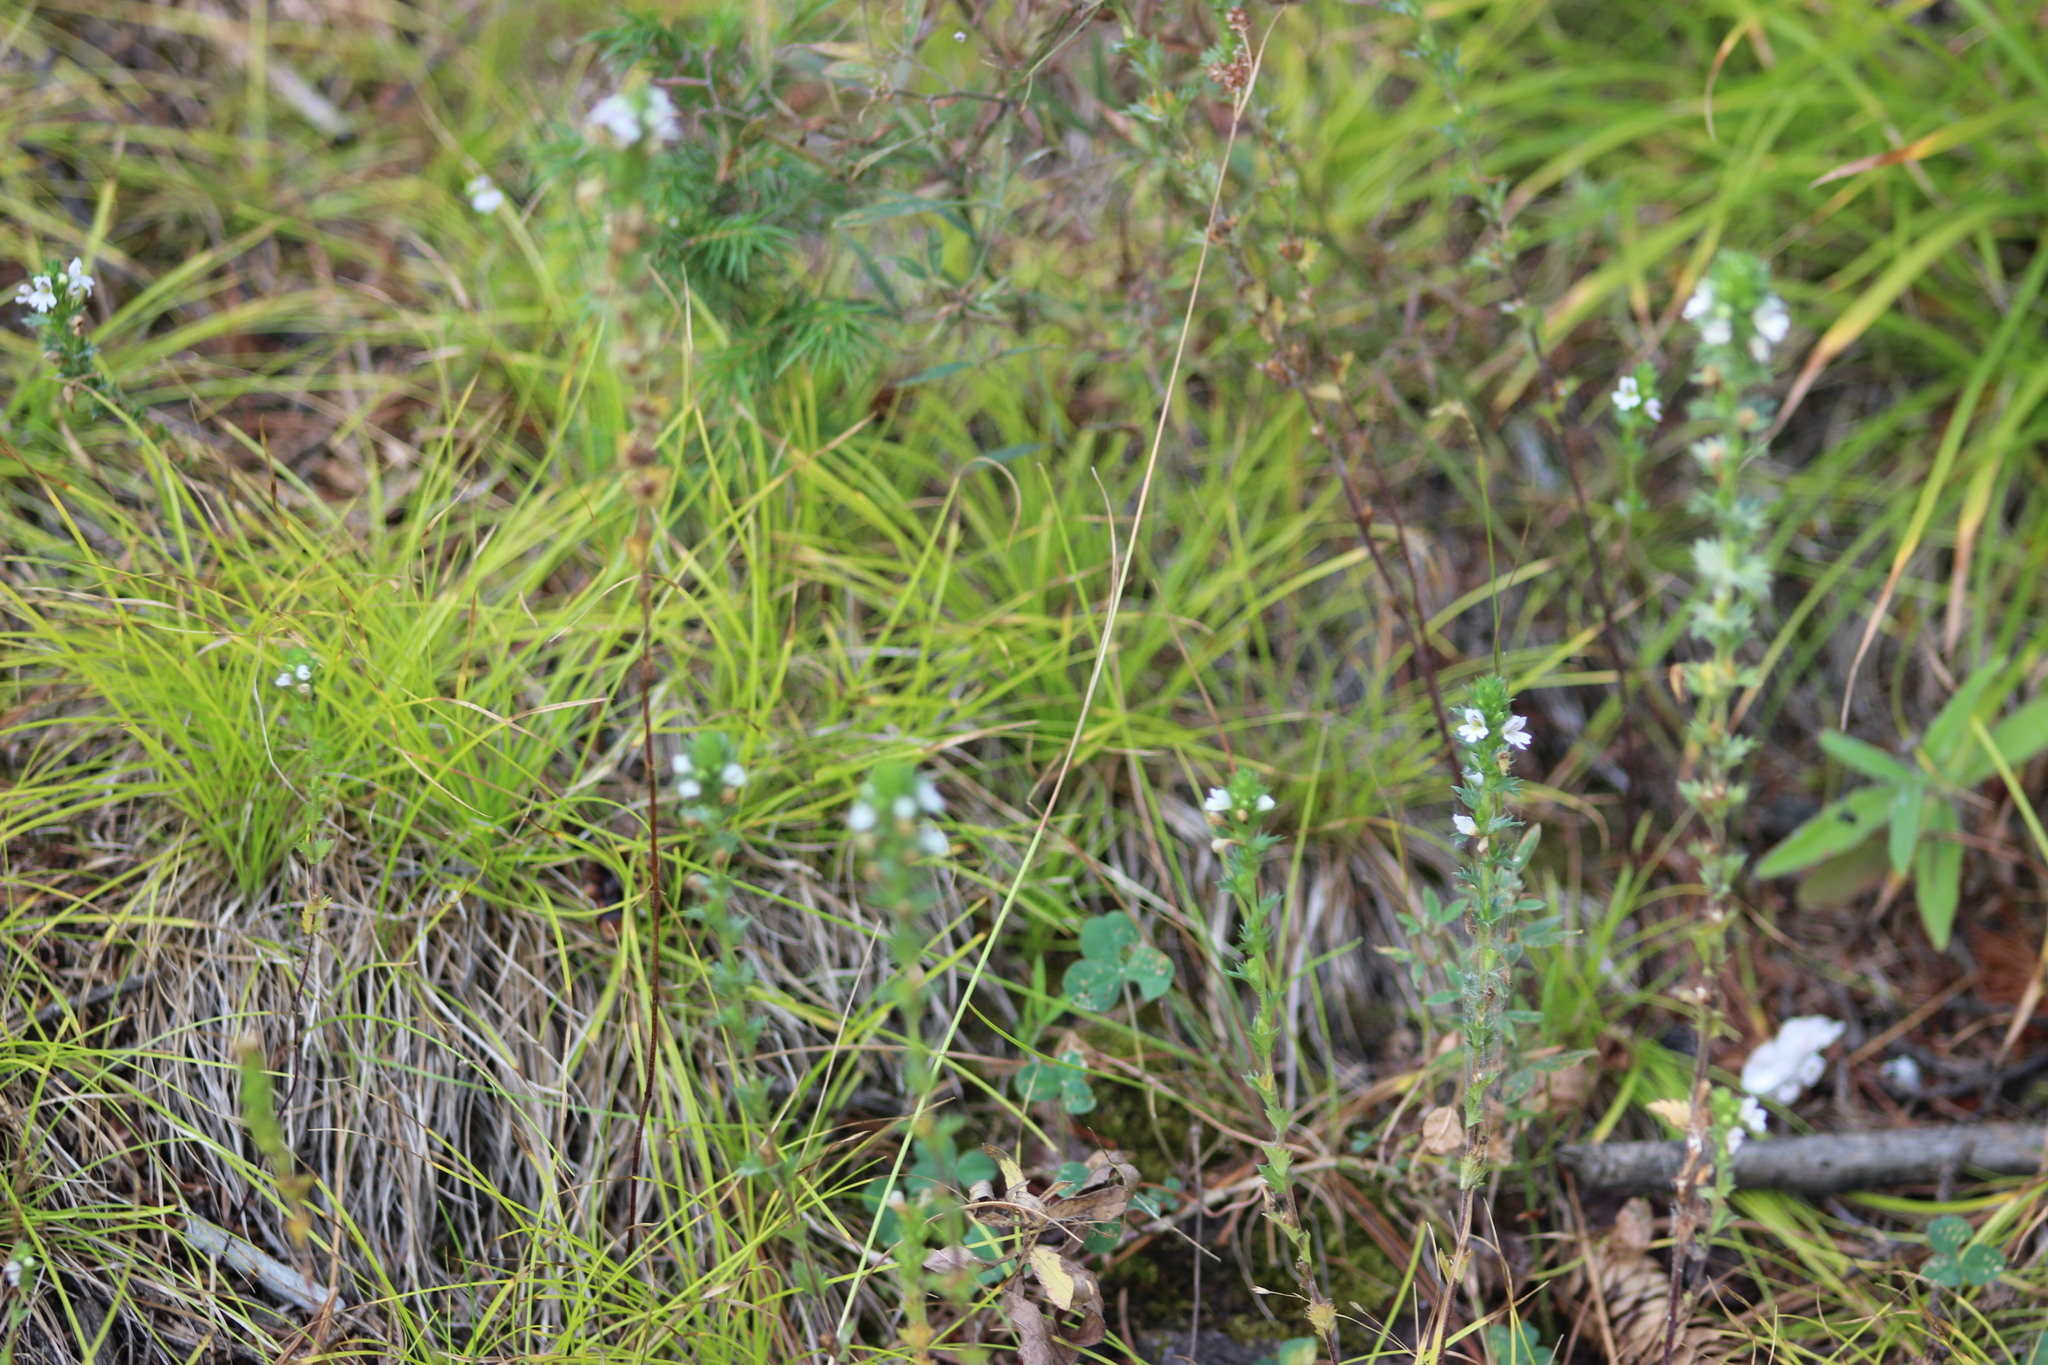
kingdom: Plantae
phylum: Tracheophyta
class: Magnoliopsida
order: Lamiales
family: Orobanchaceae
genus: Euphrasia
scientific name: Euphrasia
